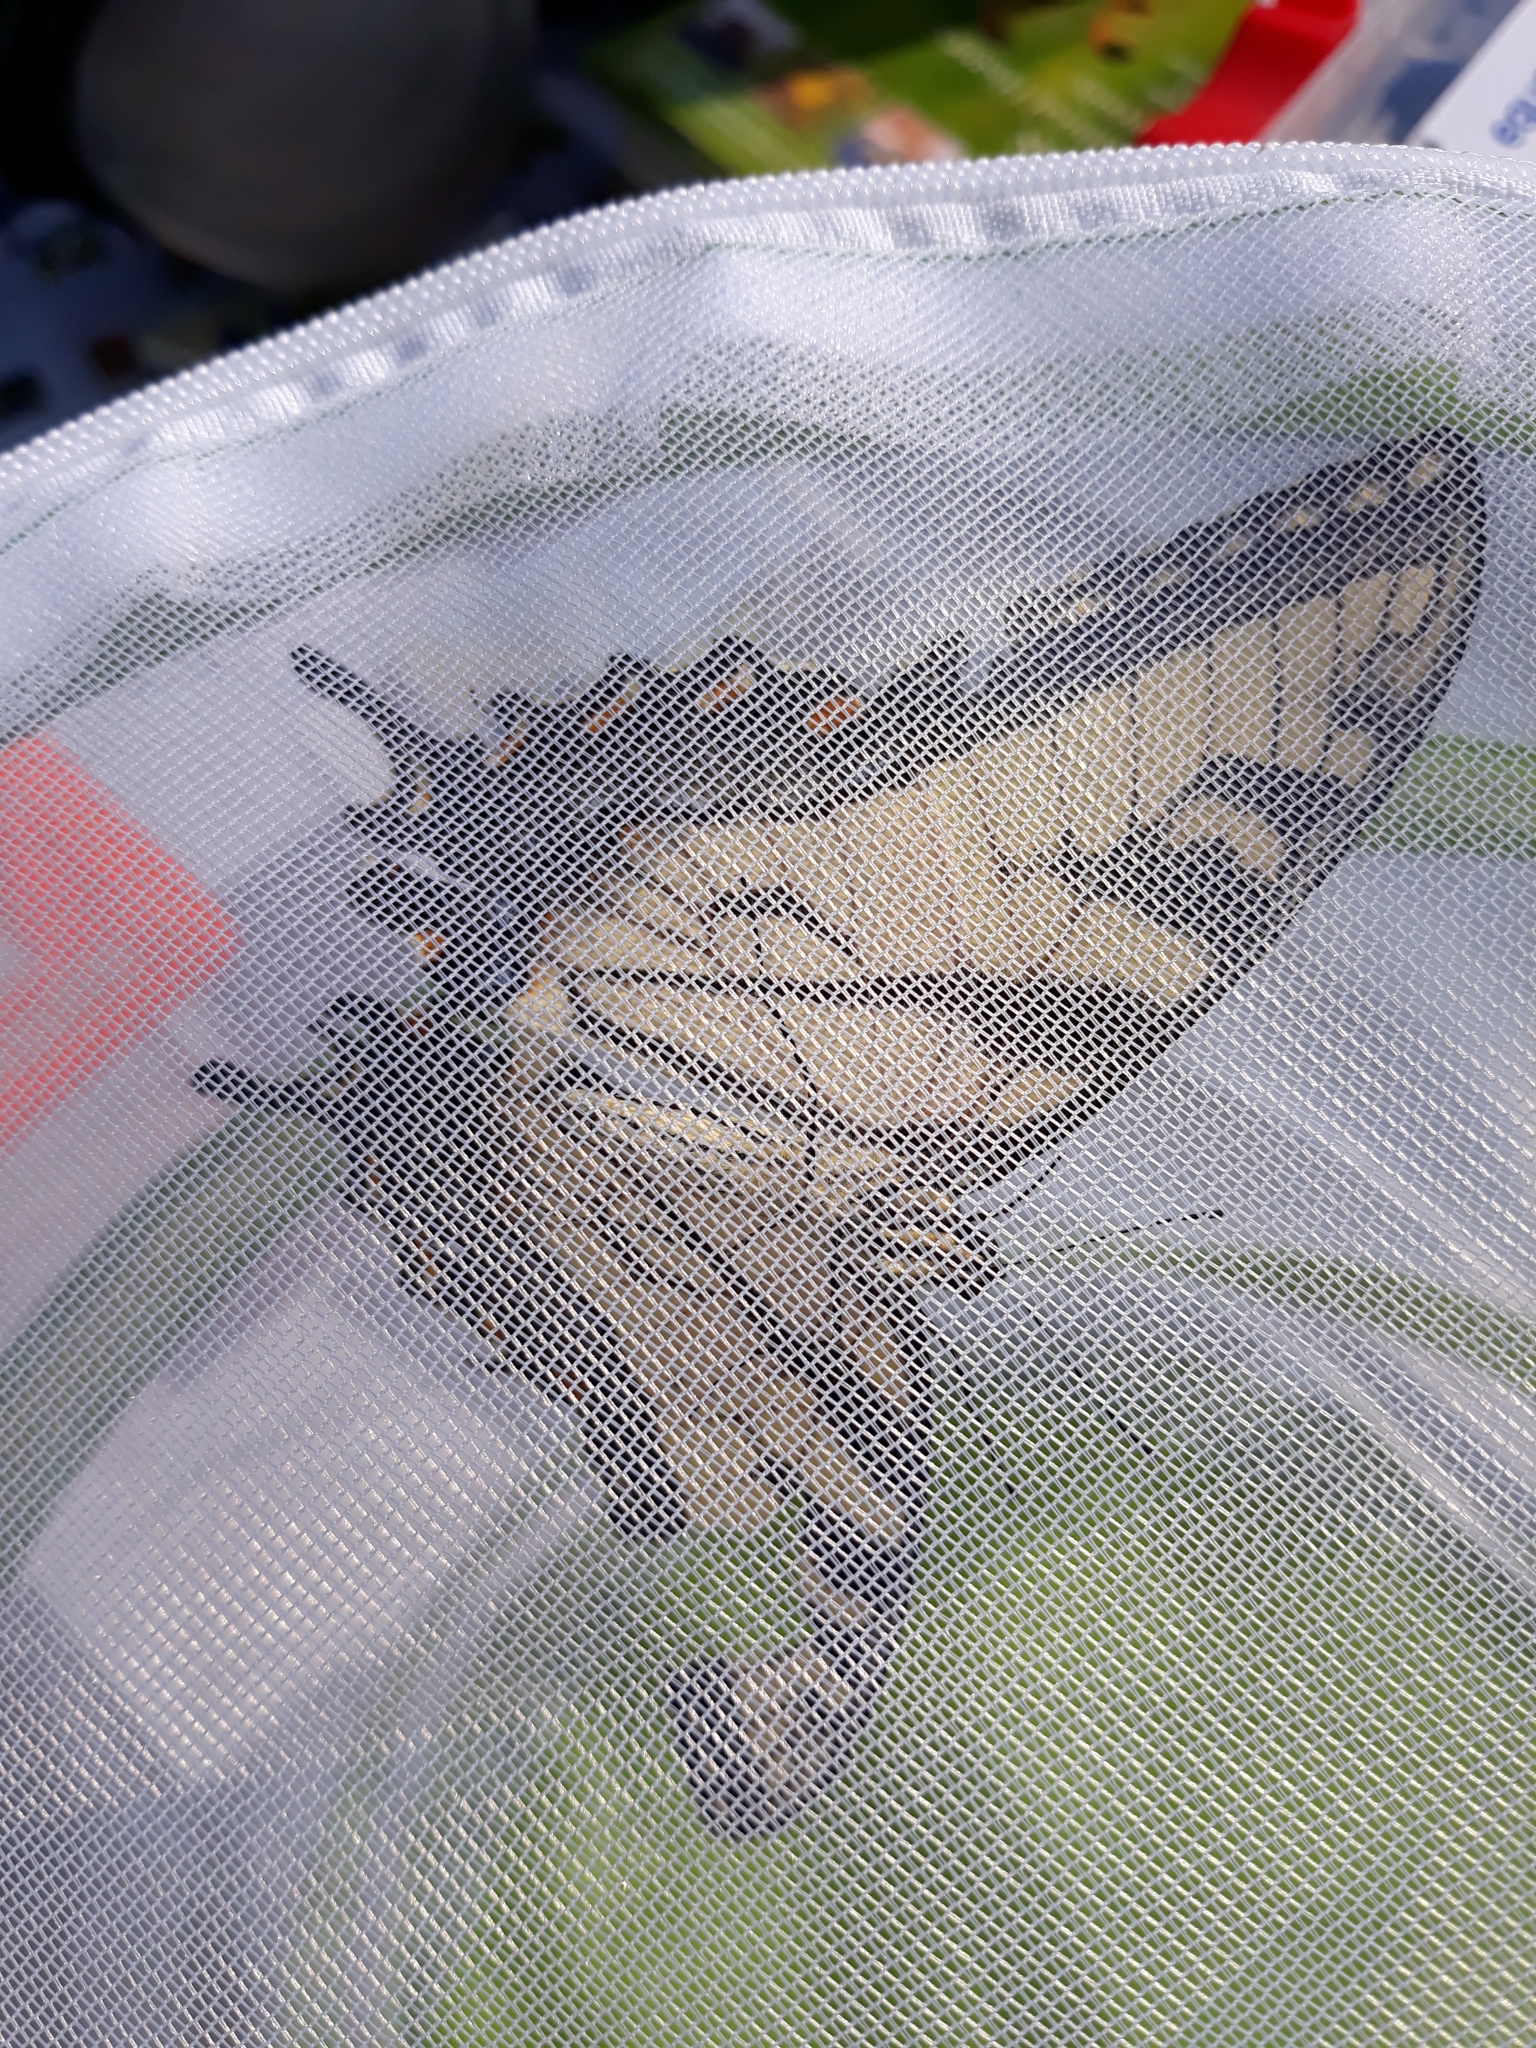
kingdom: Animalia
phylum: Arthropoda
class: Insecta
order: Lepidoptera
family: Papilionidae
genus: Papilio
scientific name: Papilio glaucus
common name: Tiger swallowtail
